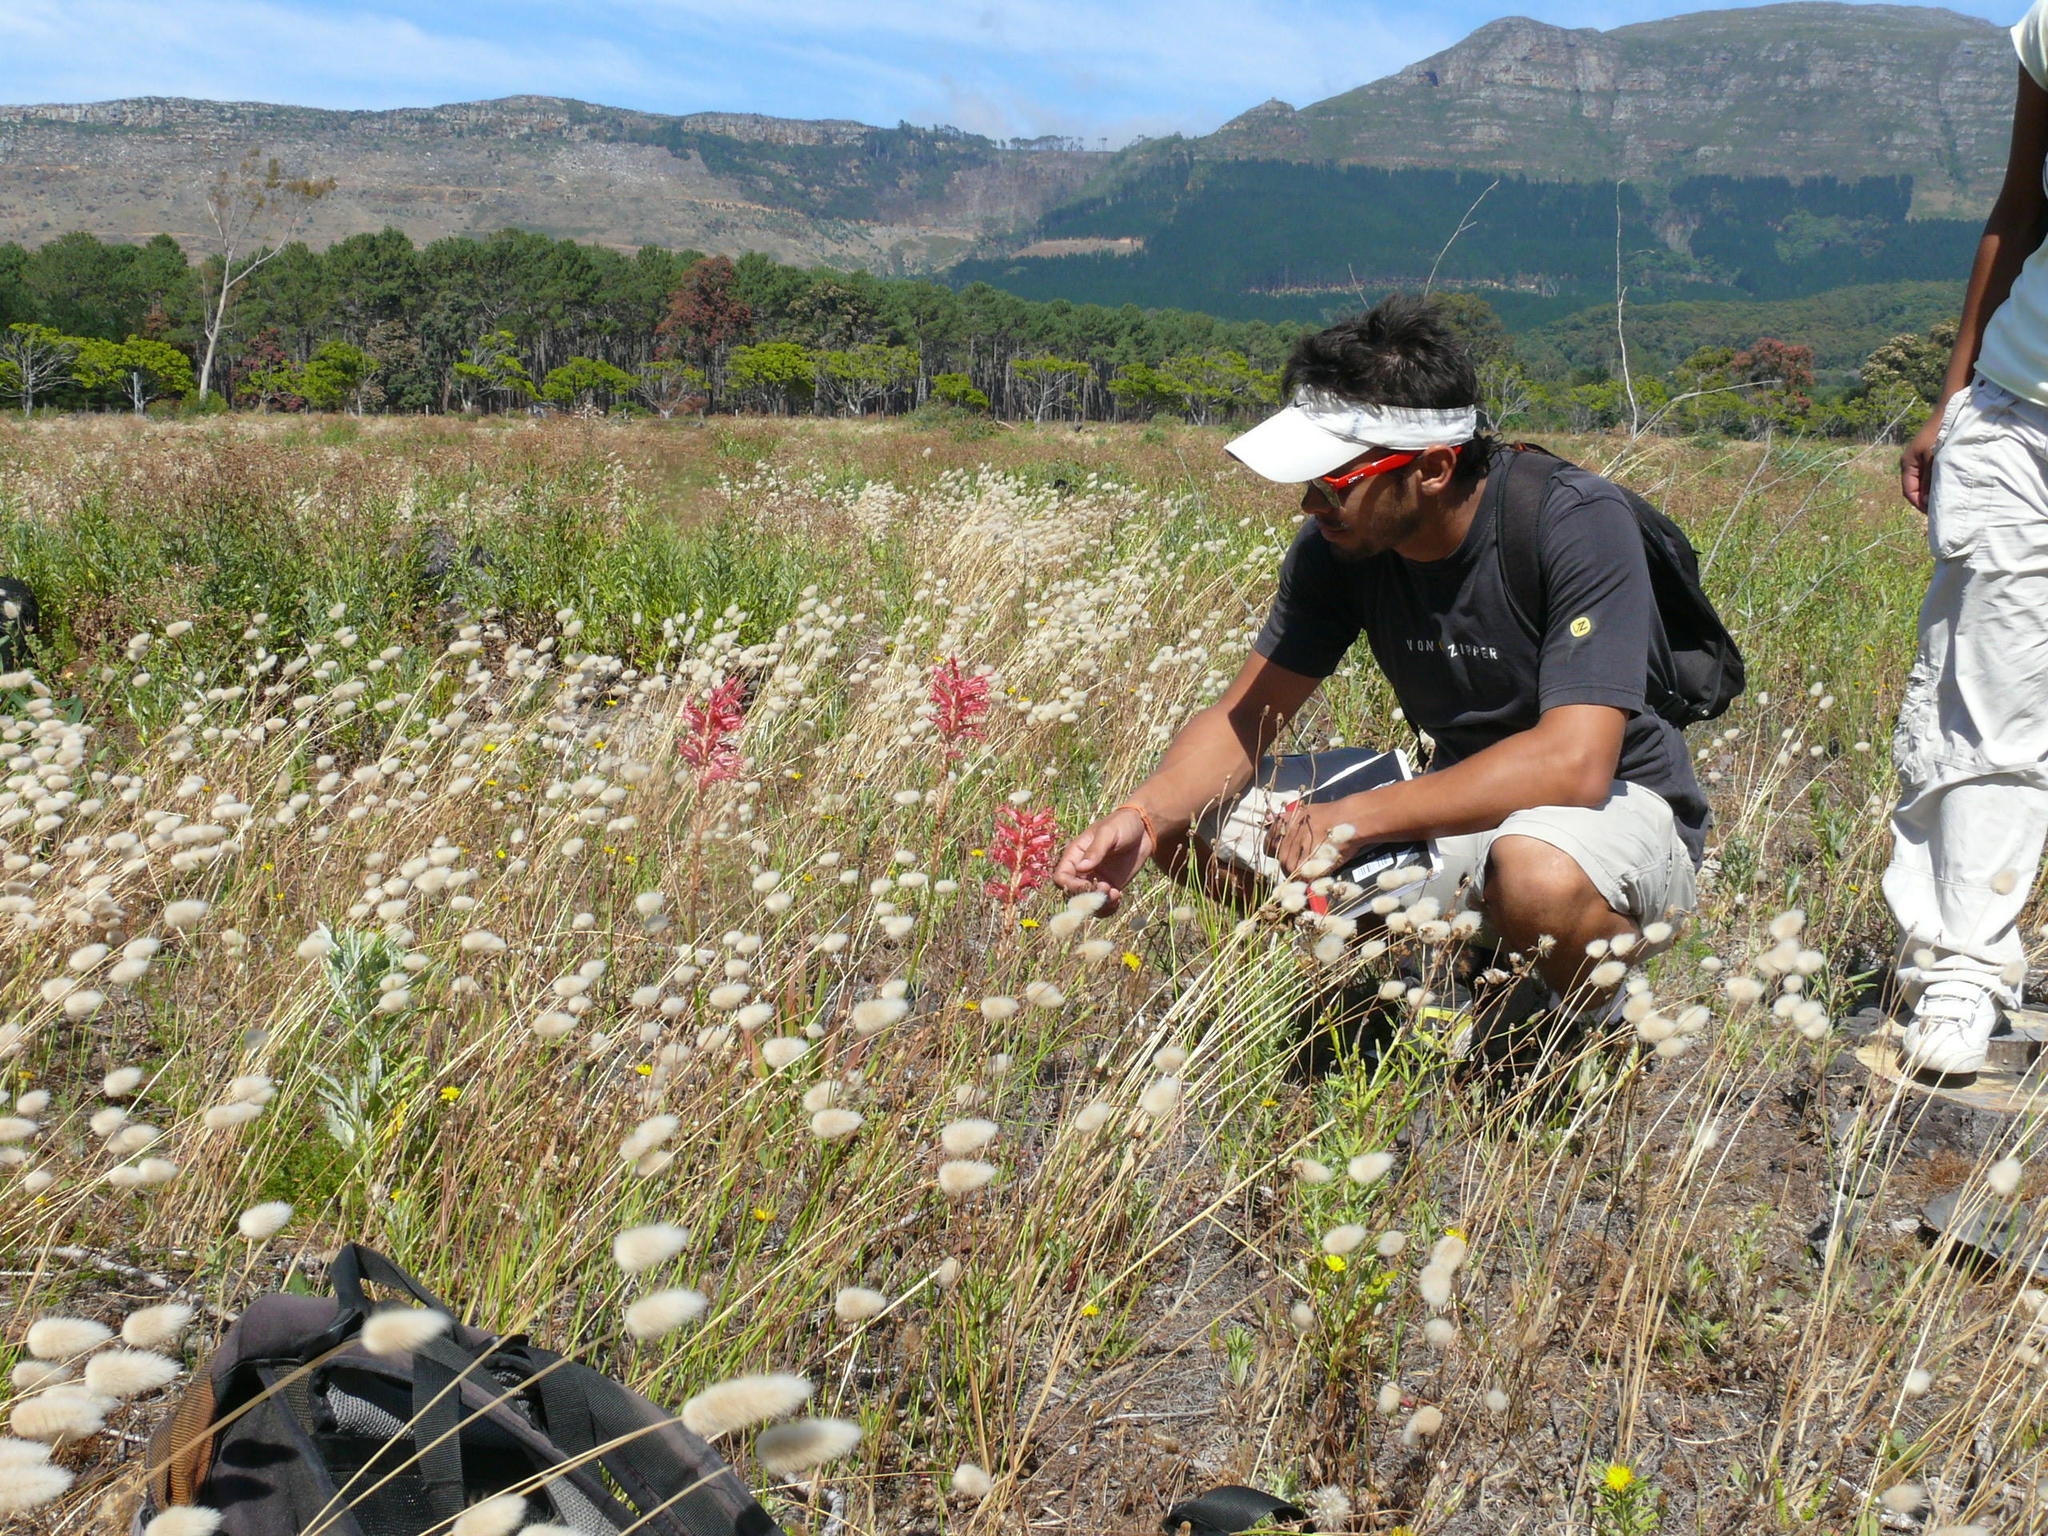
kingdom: Plantae
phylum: Tracheophyta
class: Liliopsida
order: Asparagales
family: Iridaceae
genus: Tritoniopsis
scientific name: Tritoniopsis antholyza
